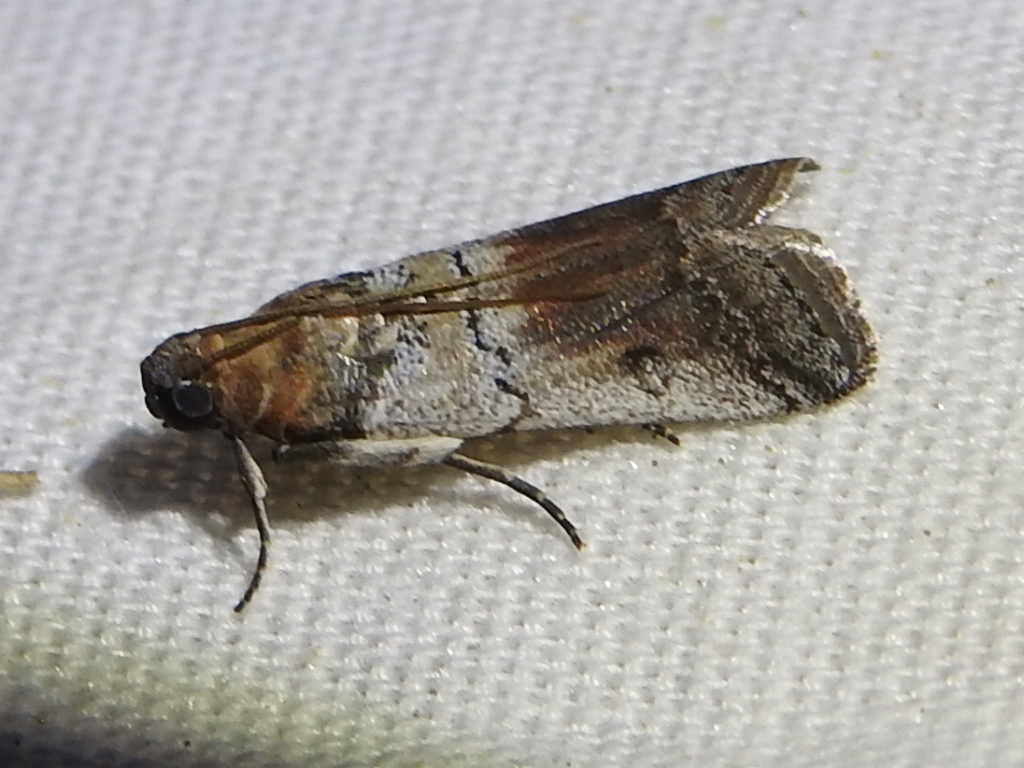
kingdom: Animalia
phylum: Arthropoda
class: Insecta
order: Lepidoptera
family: Pyralidae
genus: Chararica
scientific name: Chararica hystriculella
